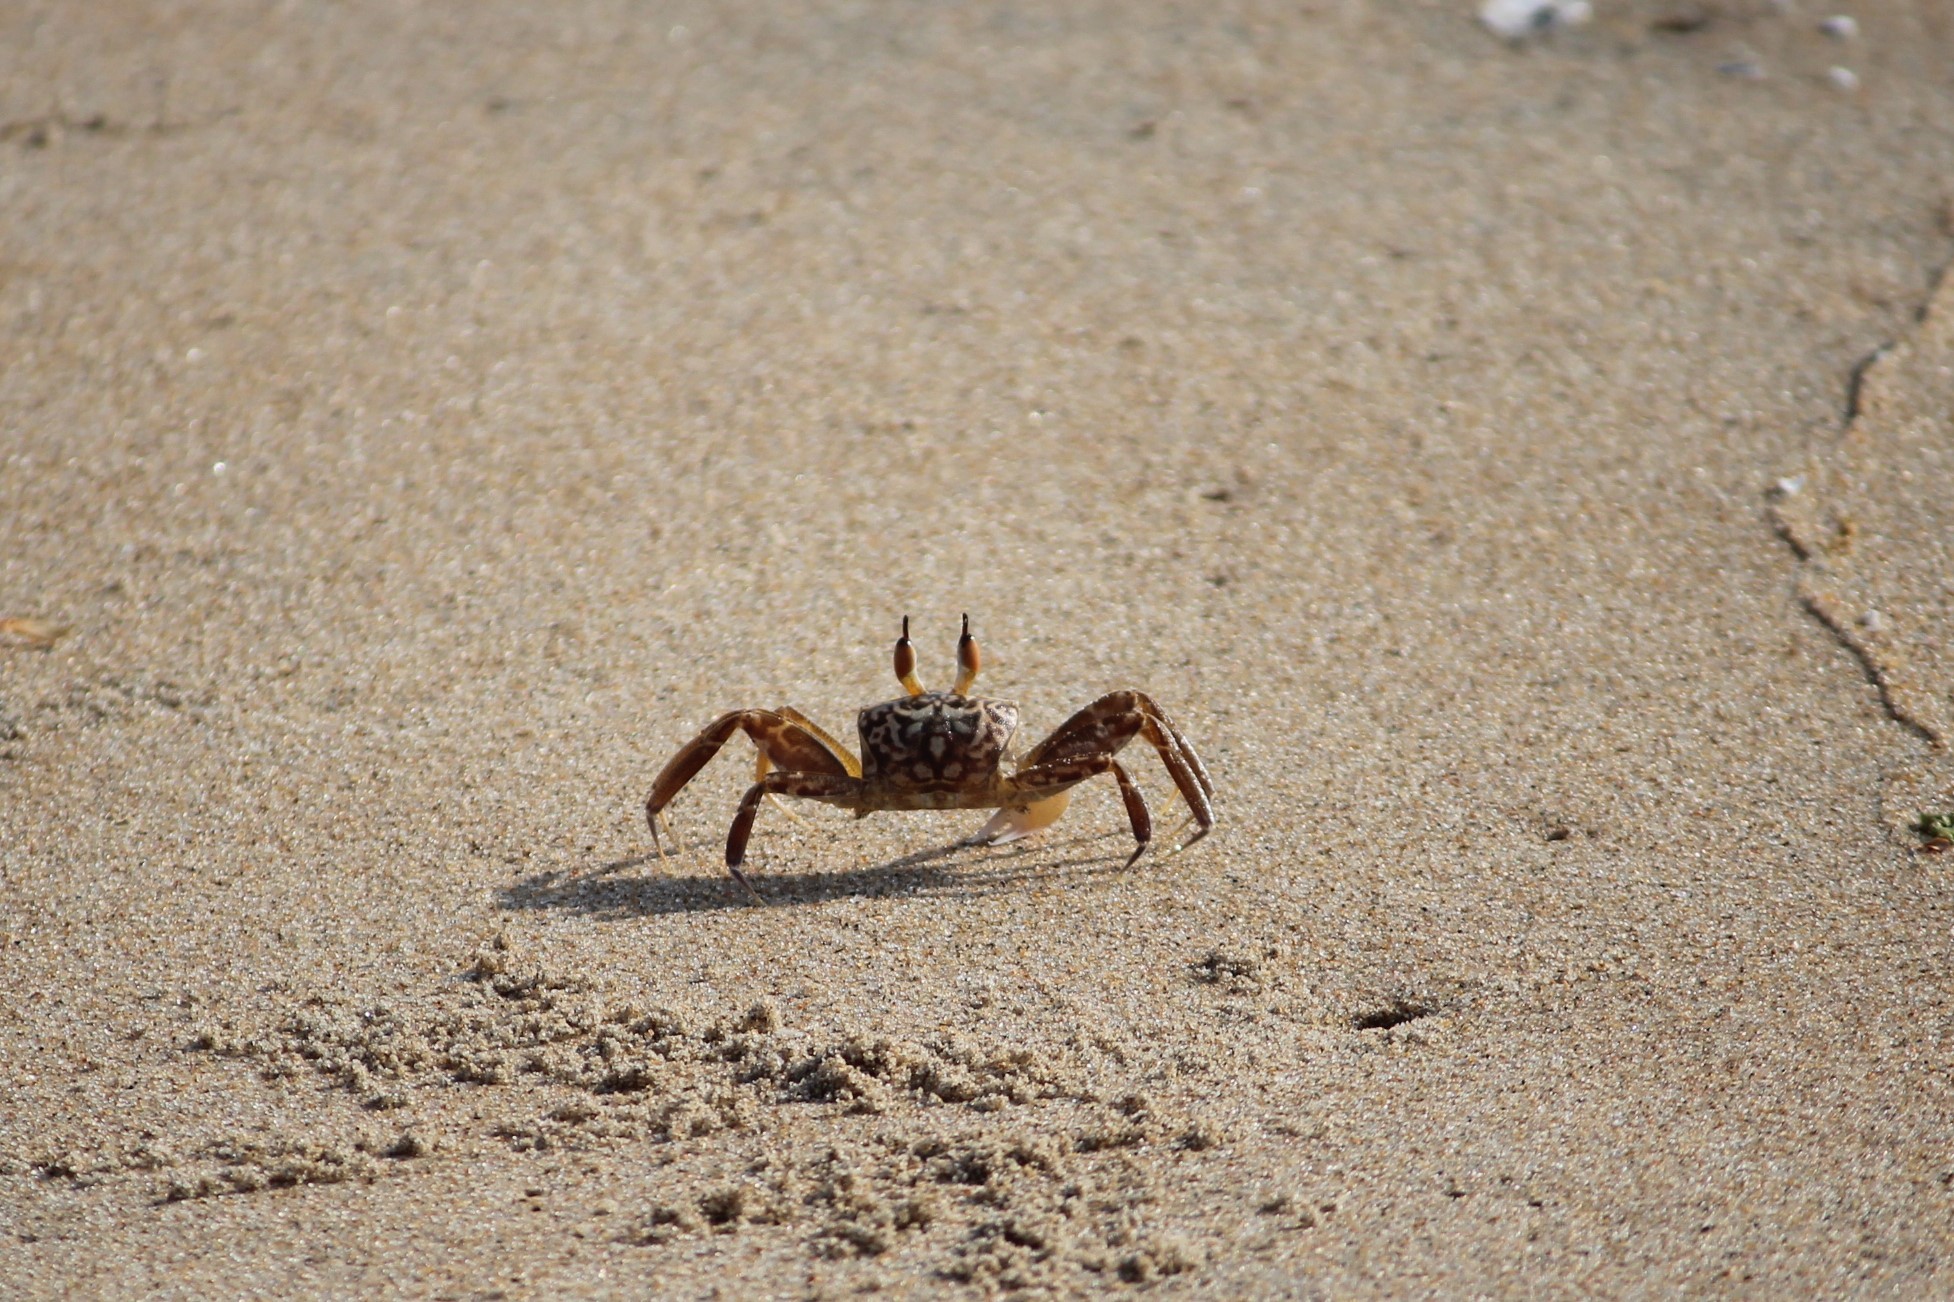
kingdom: Animalia
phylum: Arthropoda
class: Malacostraca
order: Decapoda
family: Ocypodidae
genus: Ocypode
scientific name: Ocypode brevicornis
